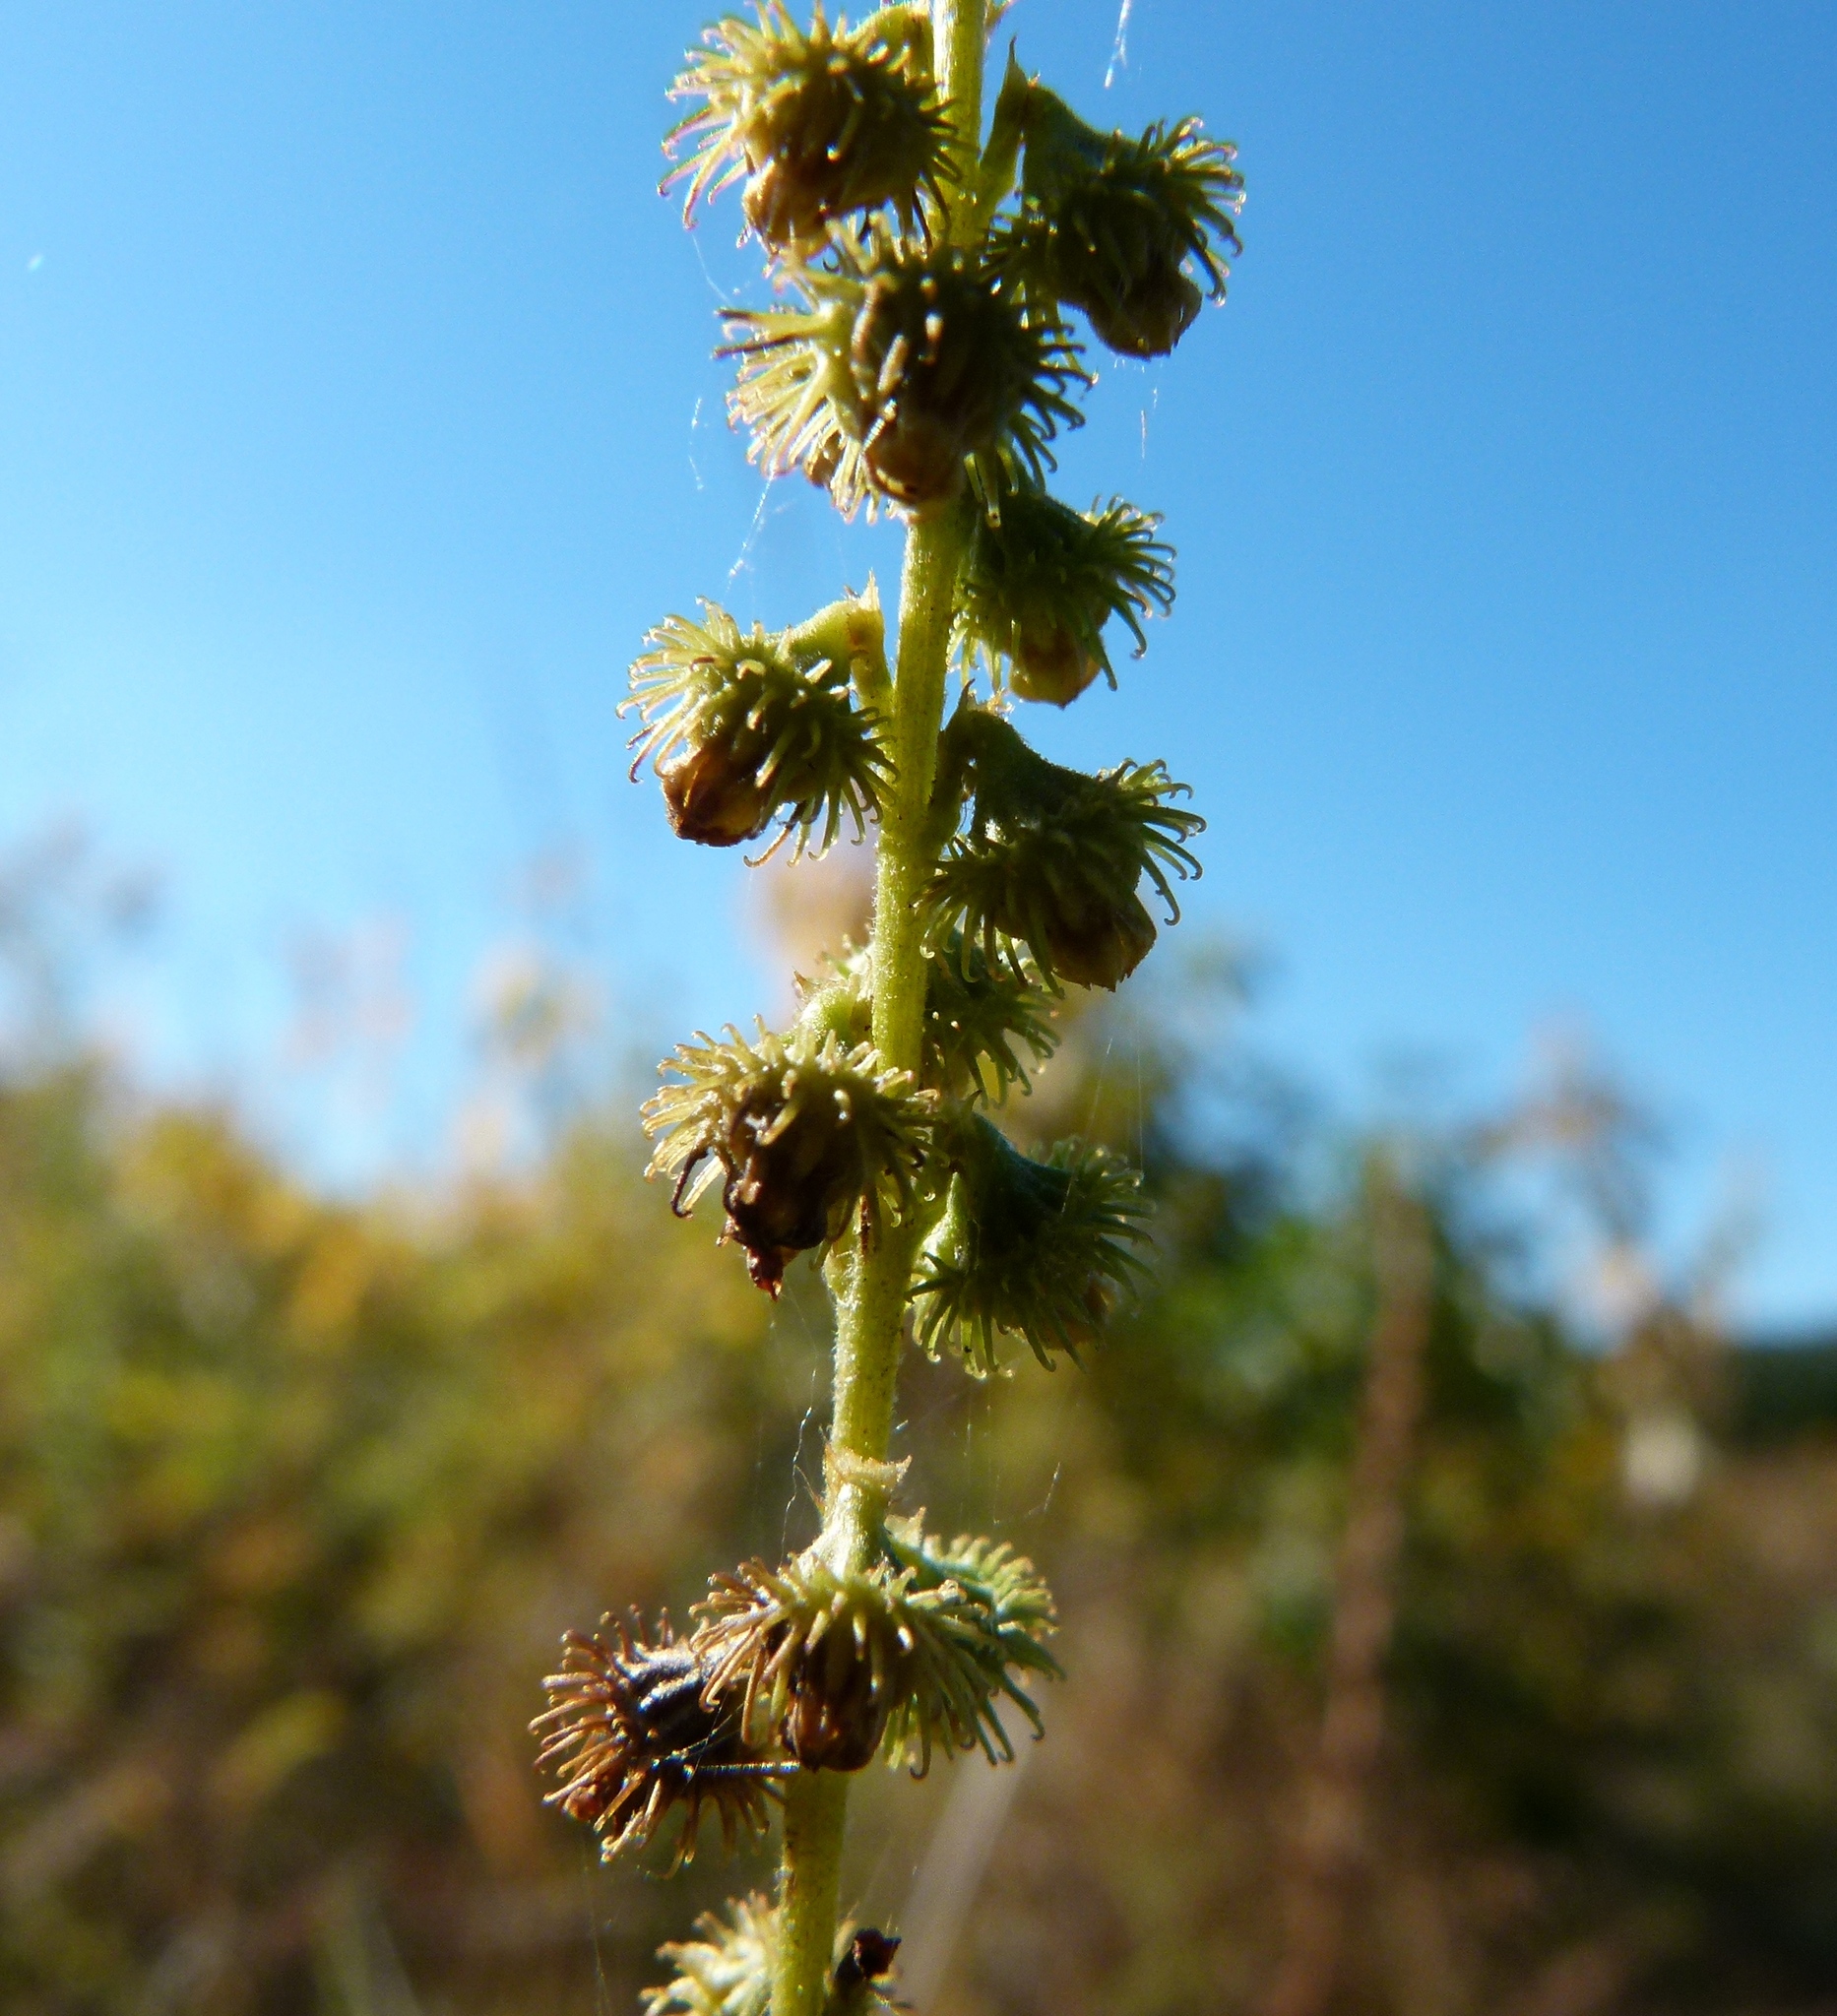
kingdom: Plantae
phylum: Tracheophyta
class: Magnoliopsida
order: Rosales
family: Rosaceae
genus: Agrimonia
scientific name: Agrimonia parviflora
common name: Harvest-lice
